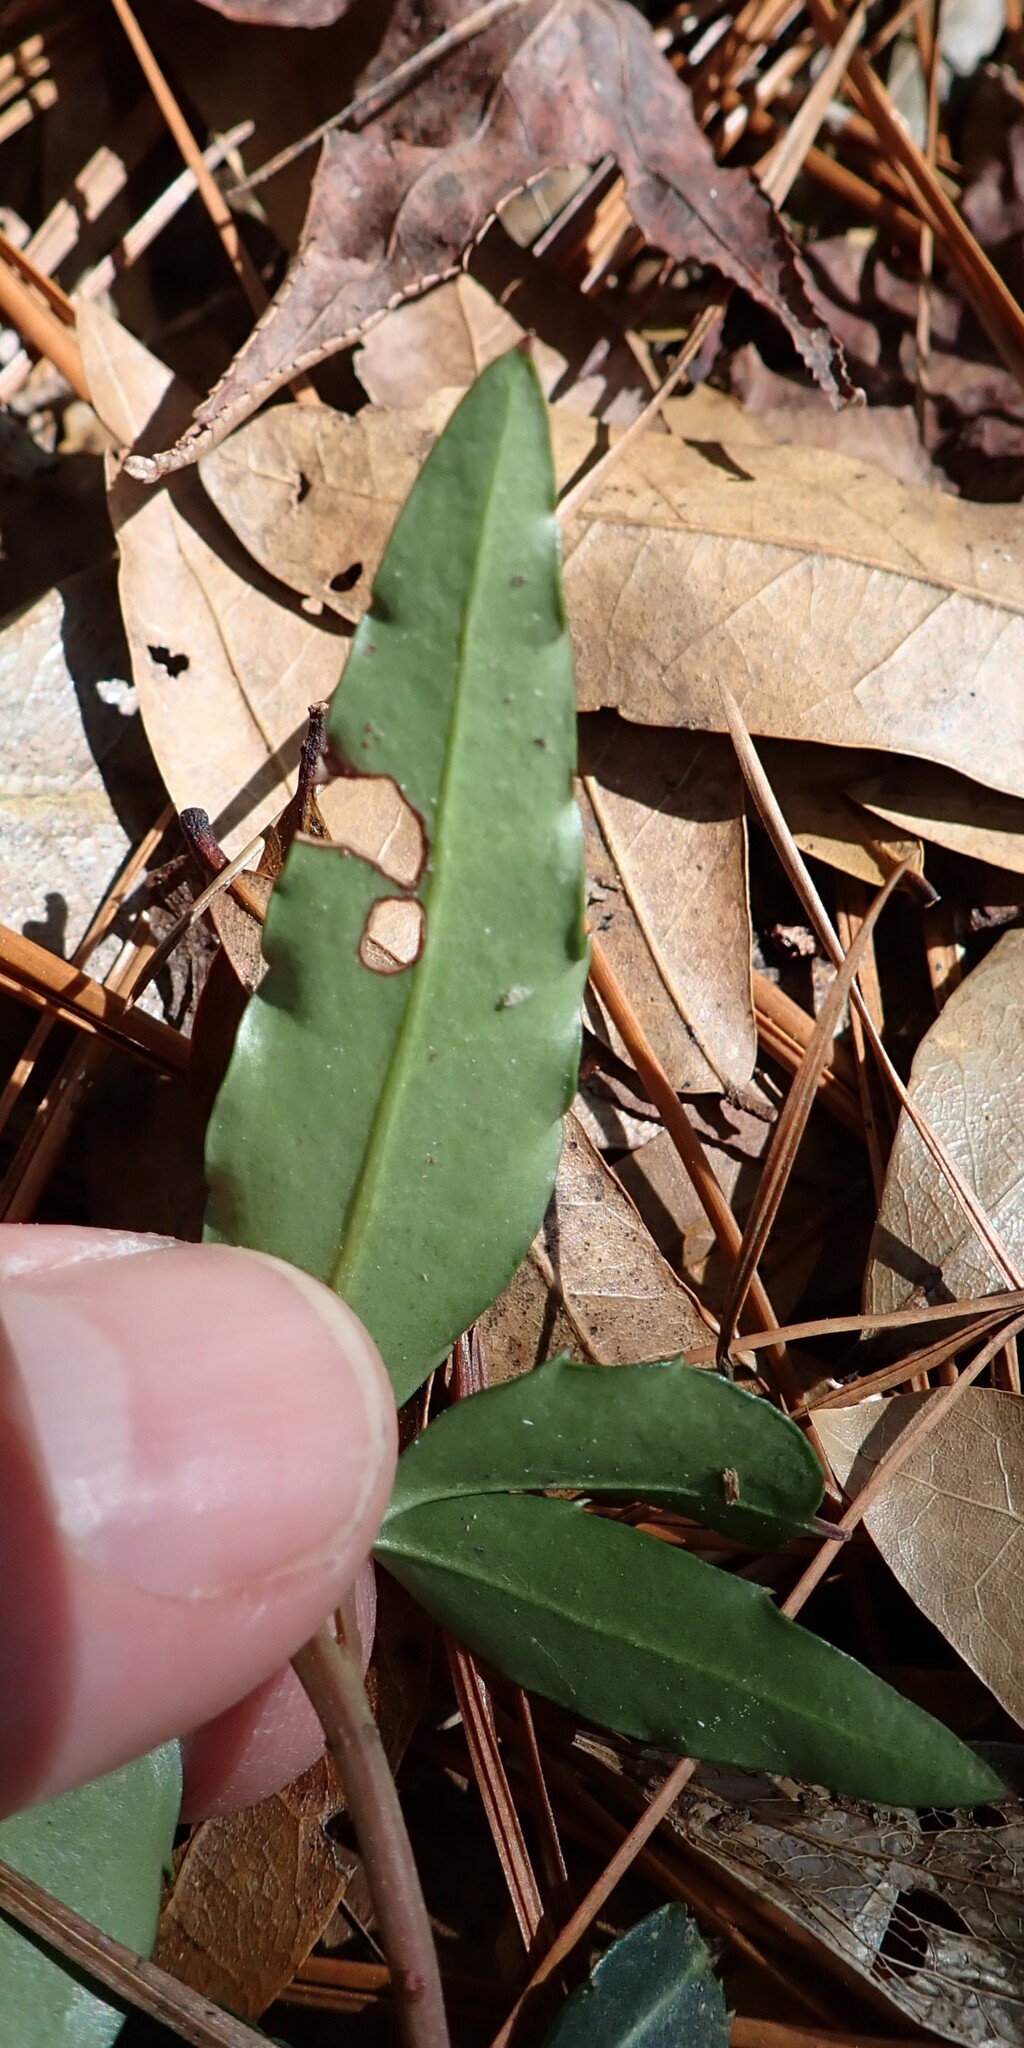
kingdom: Plantae
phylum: Tracheophyta
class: Magnoliopsida
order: Ericales
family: Ericaceae
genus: Chimaphila
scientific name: Chimaphila maculata
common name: Spotted pipsissewa
